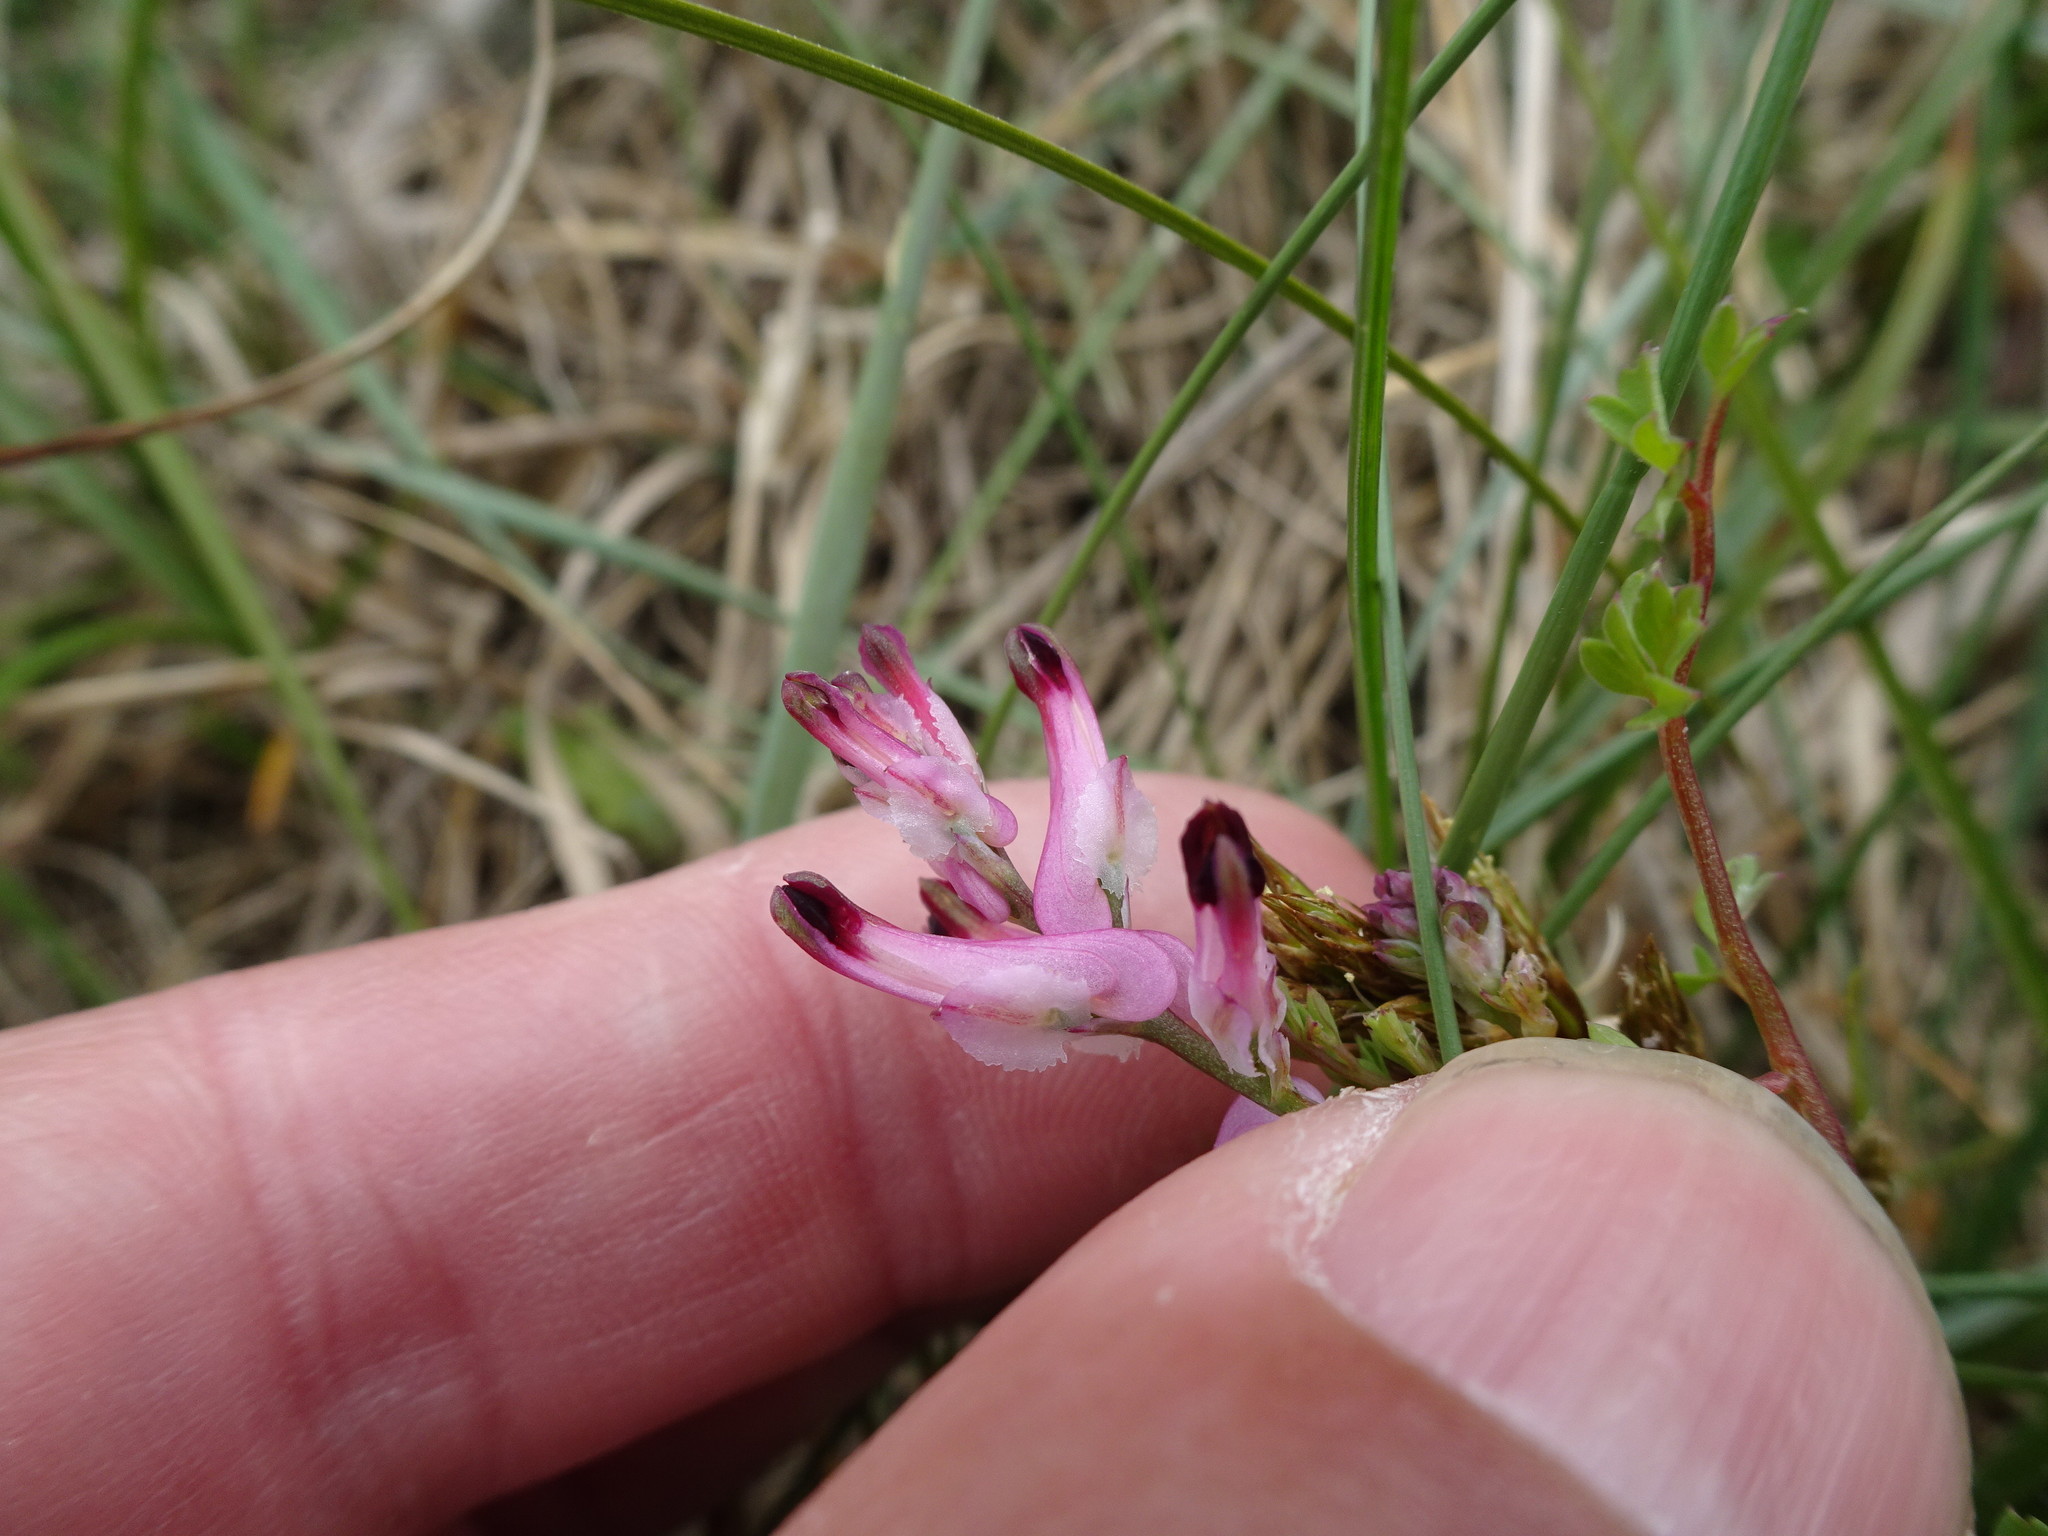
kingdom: Plantae
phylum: Tracheophyta
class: Magnoliopsida
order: Ranunculales
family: Papaveraceae
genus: Fumaria
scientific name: Fumaria officinalis
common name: Common fumitory
